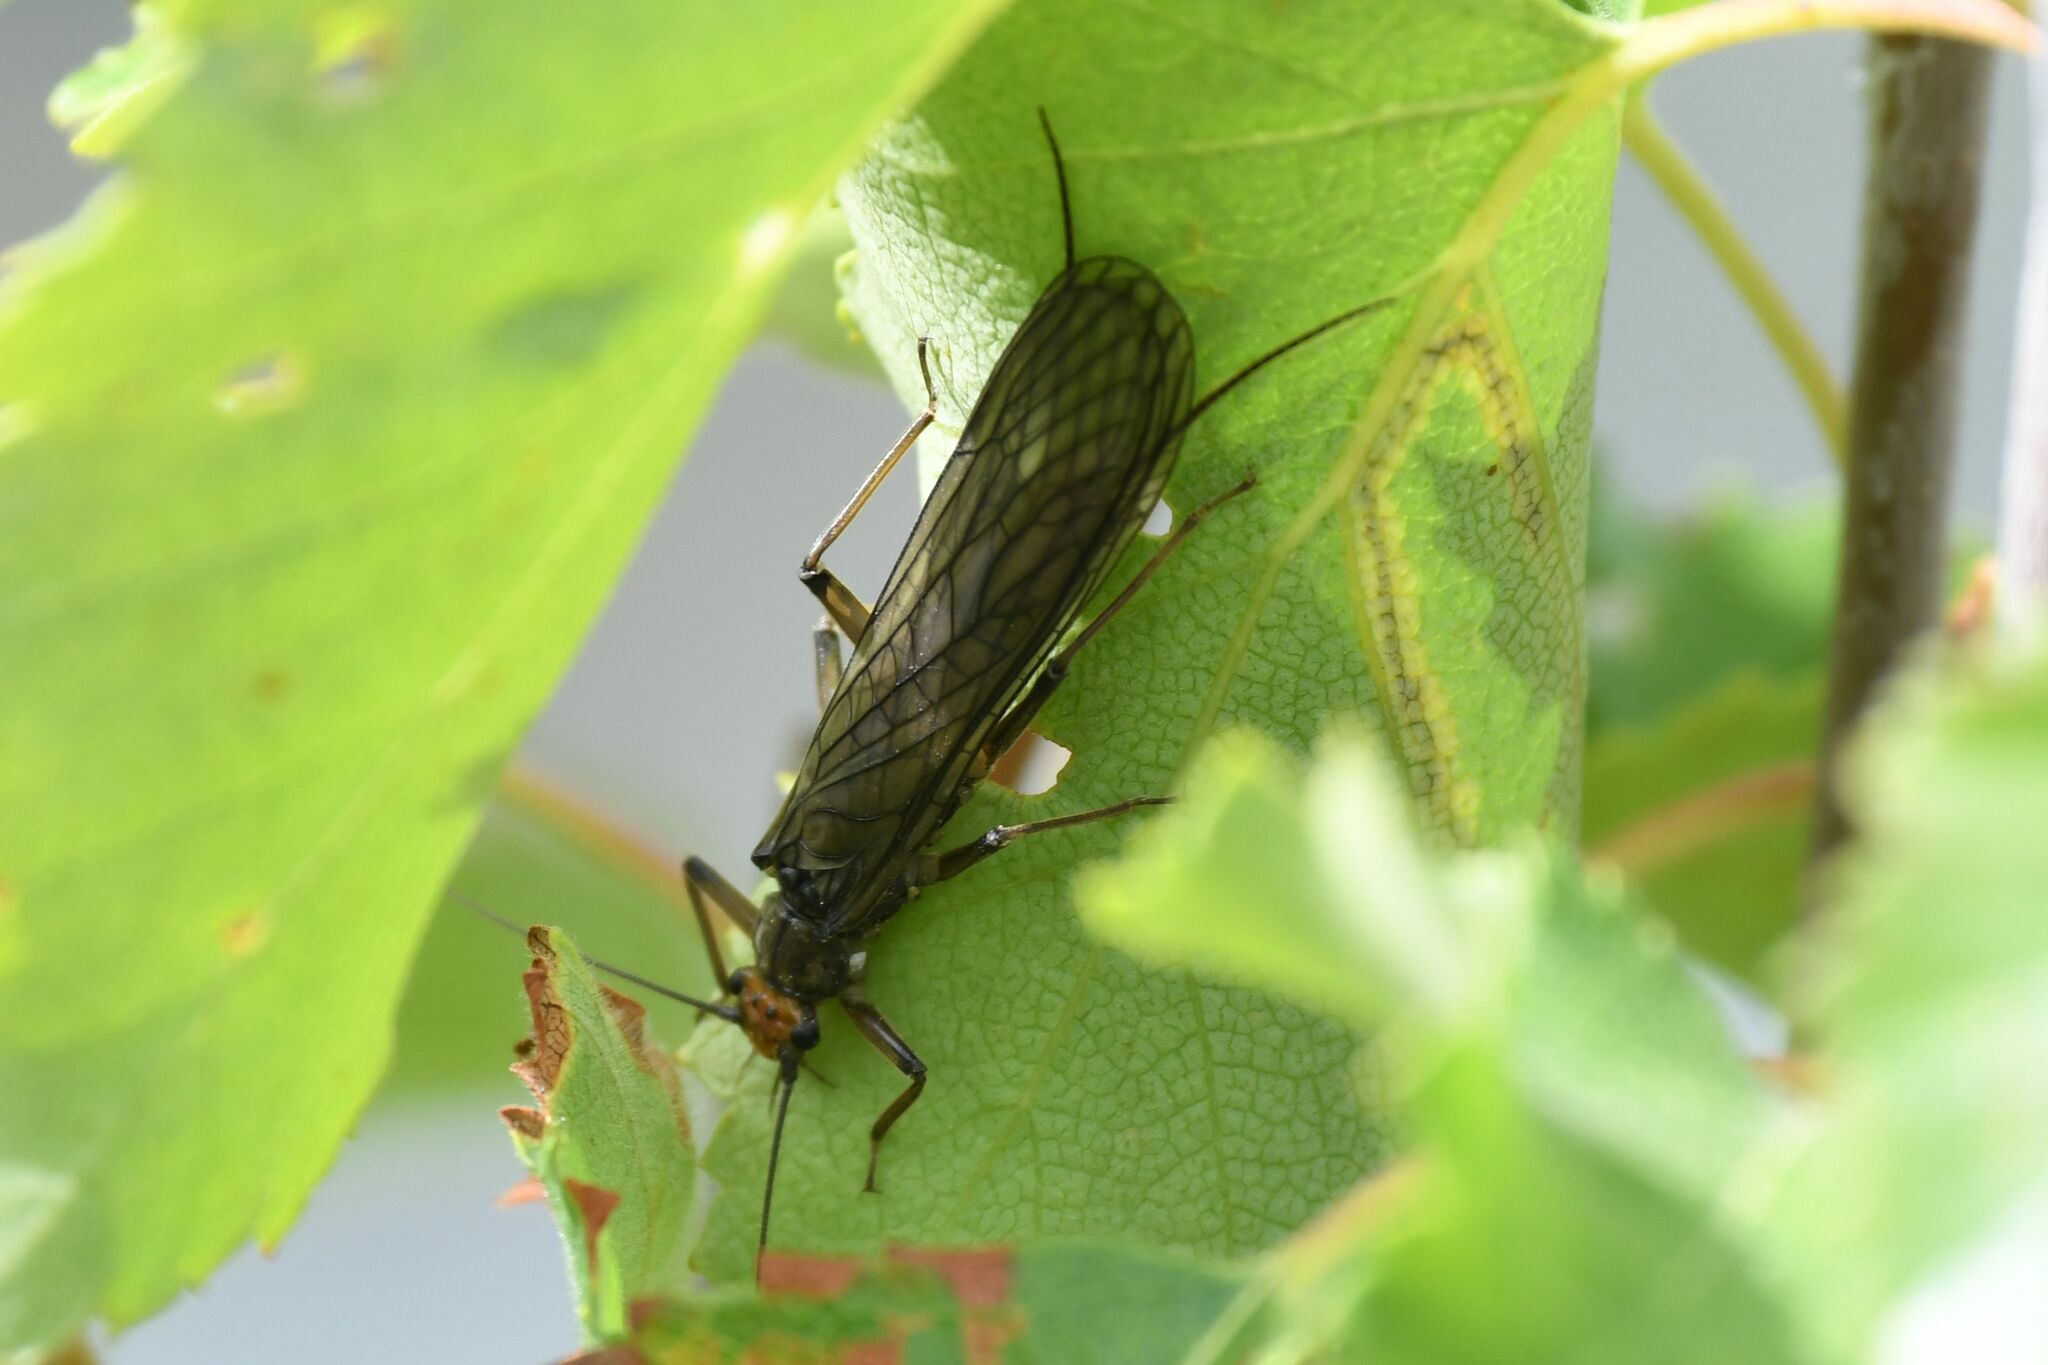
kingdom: Animalia
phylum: Arthropoda
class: Insecta
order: Plecoptera
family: Perlidae
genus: Perla
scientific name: Perla grandis
